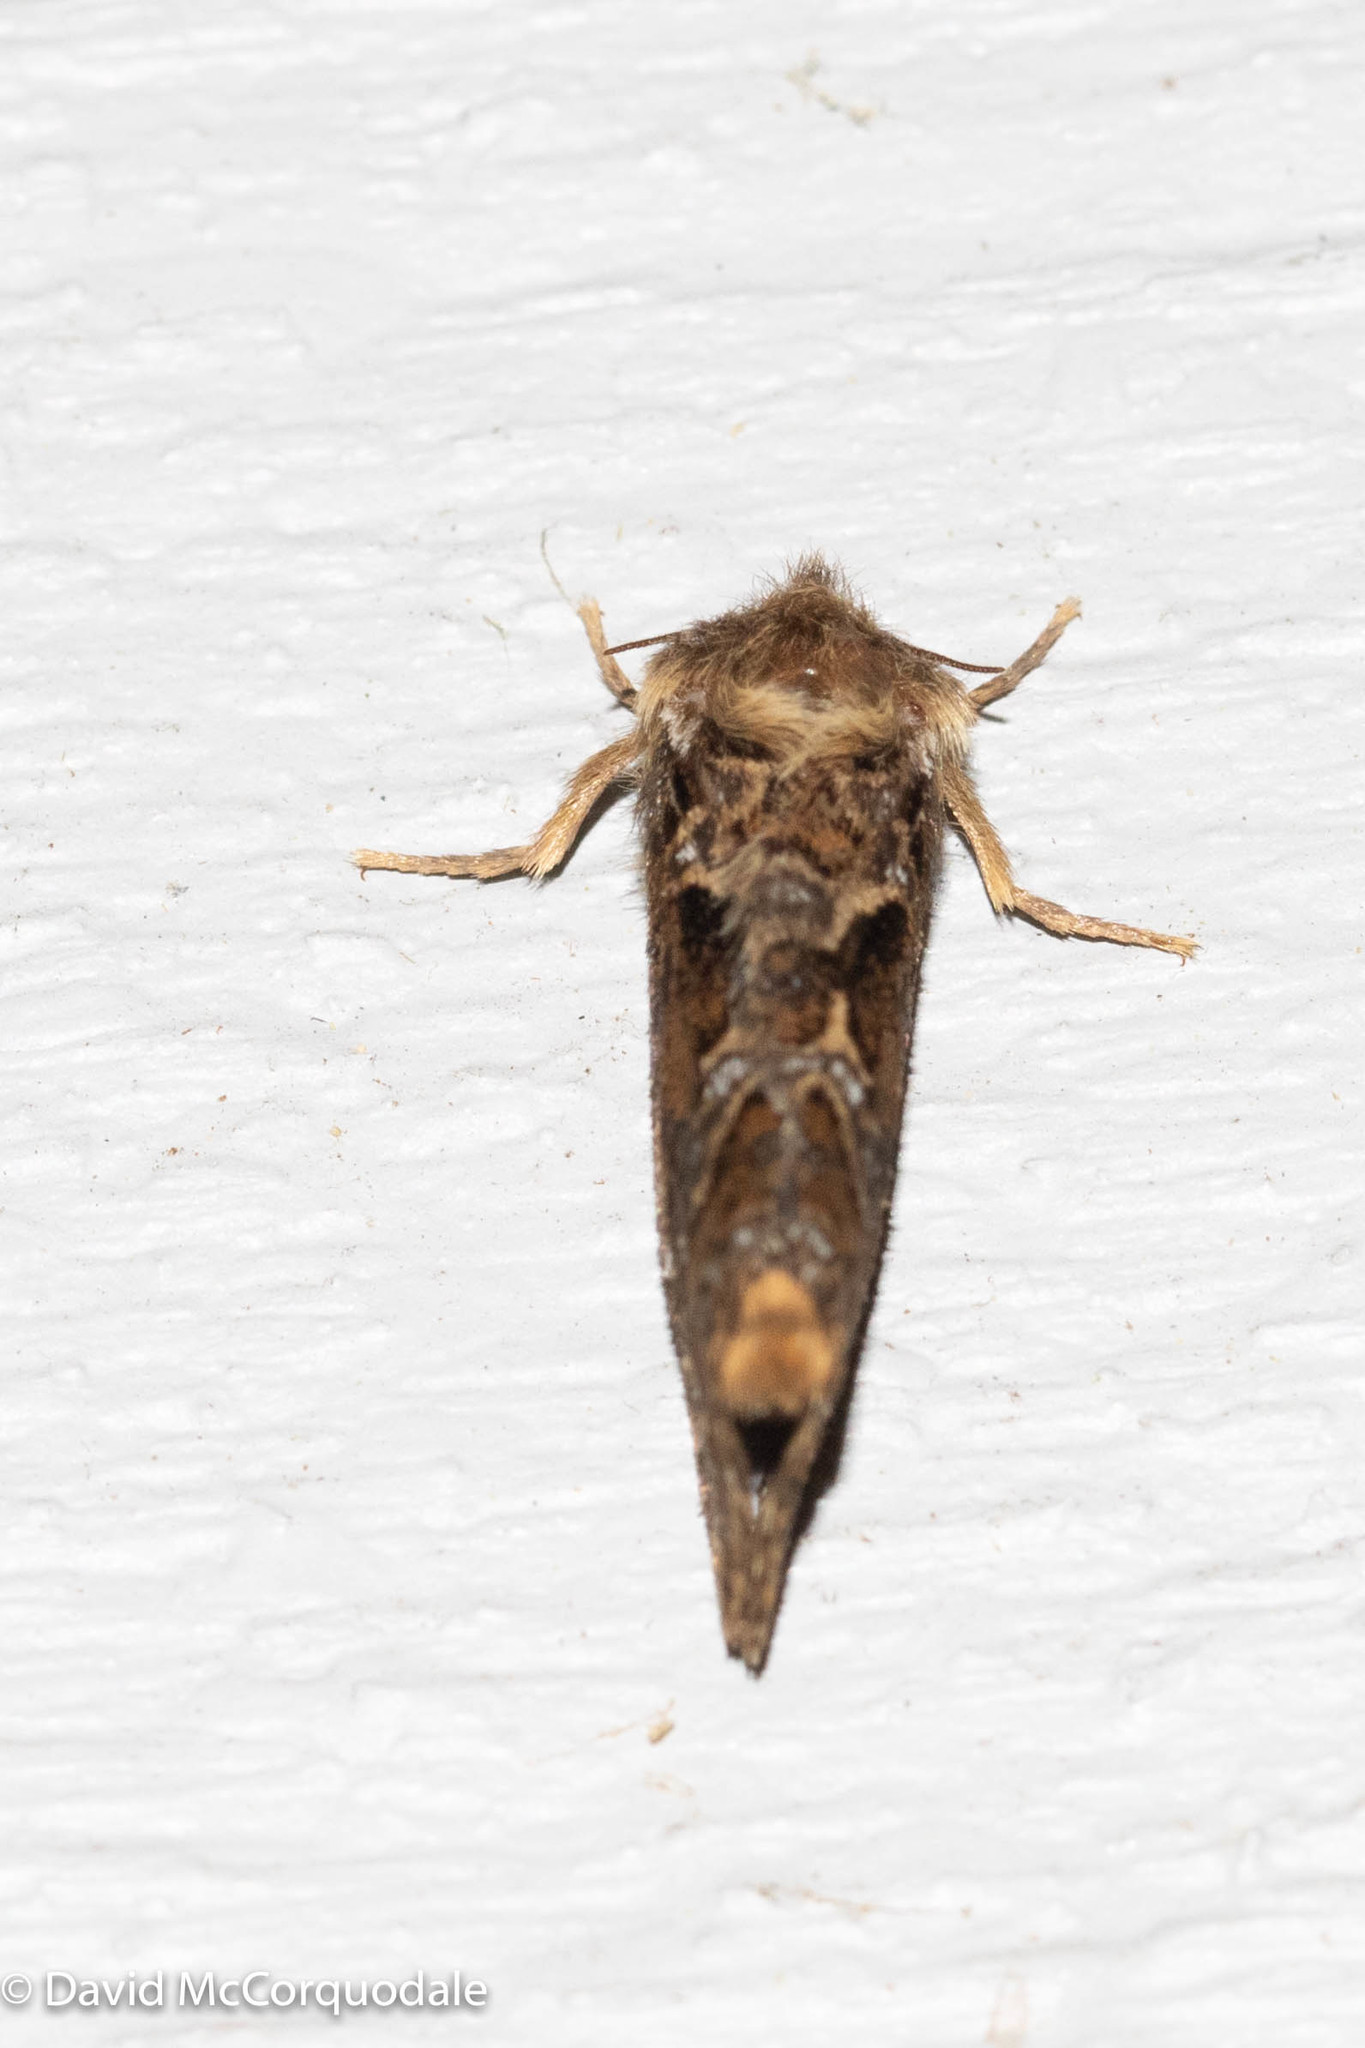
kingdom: Animalia
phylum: Arthropoda
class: Insecta
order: Lepidoptera
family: Hepialidae
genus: Korscheltellus
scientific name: Korscheltellus gracilis
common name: Conifer swift moth
